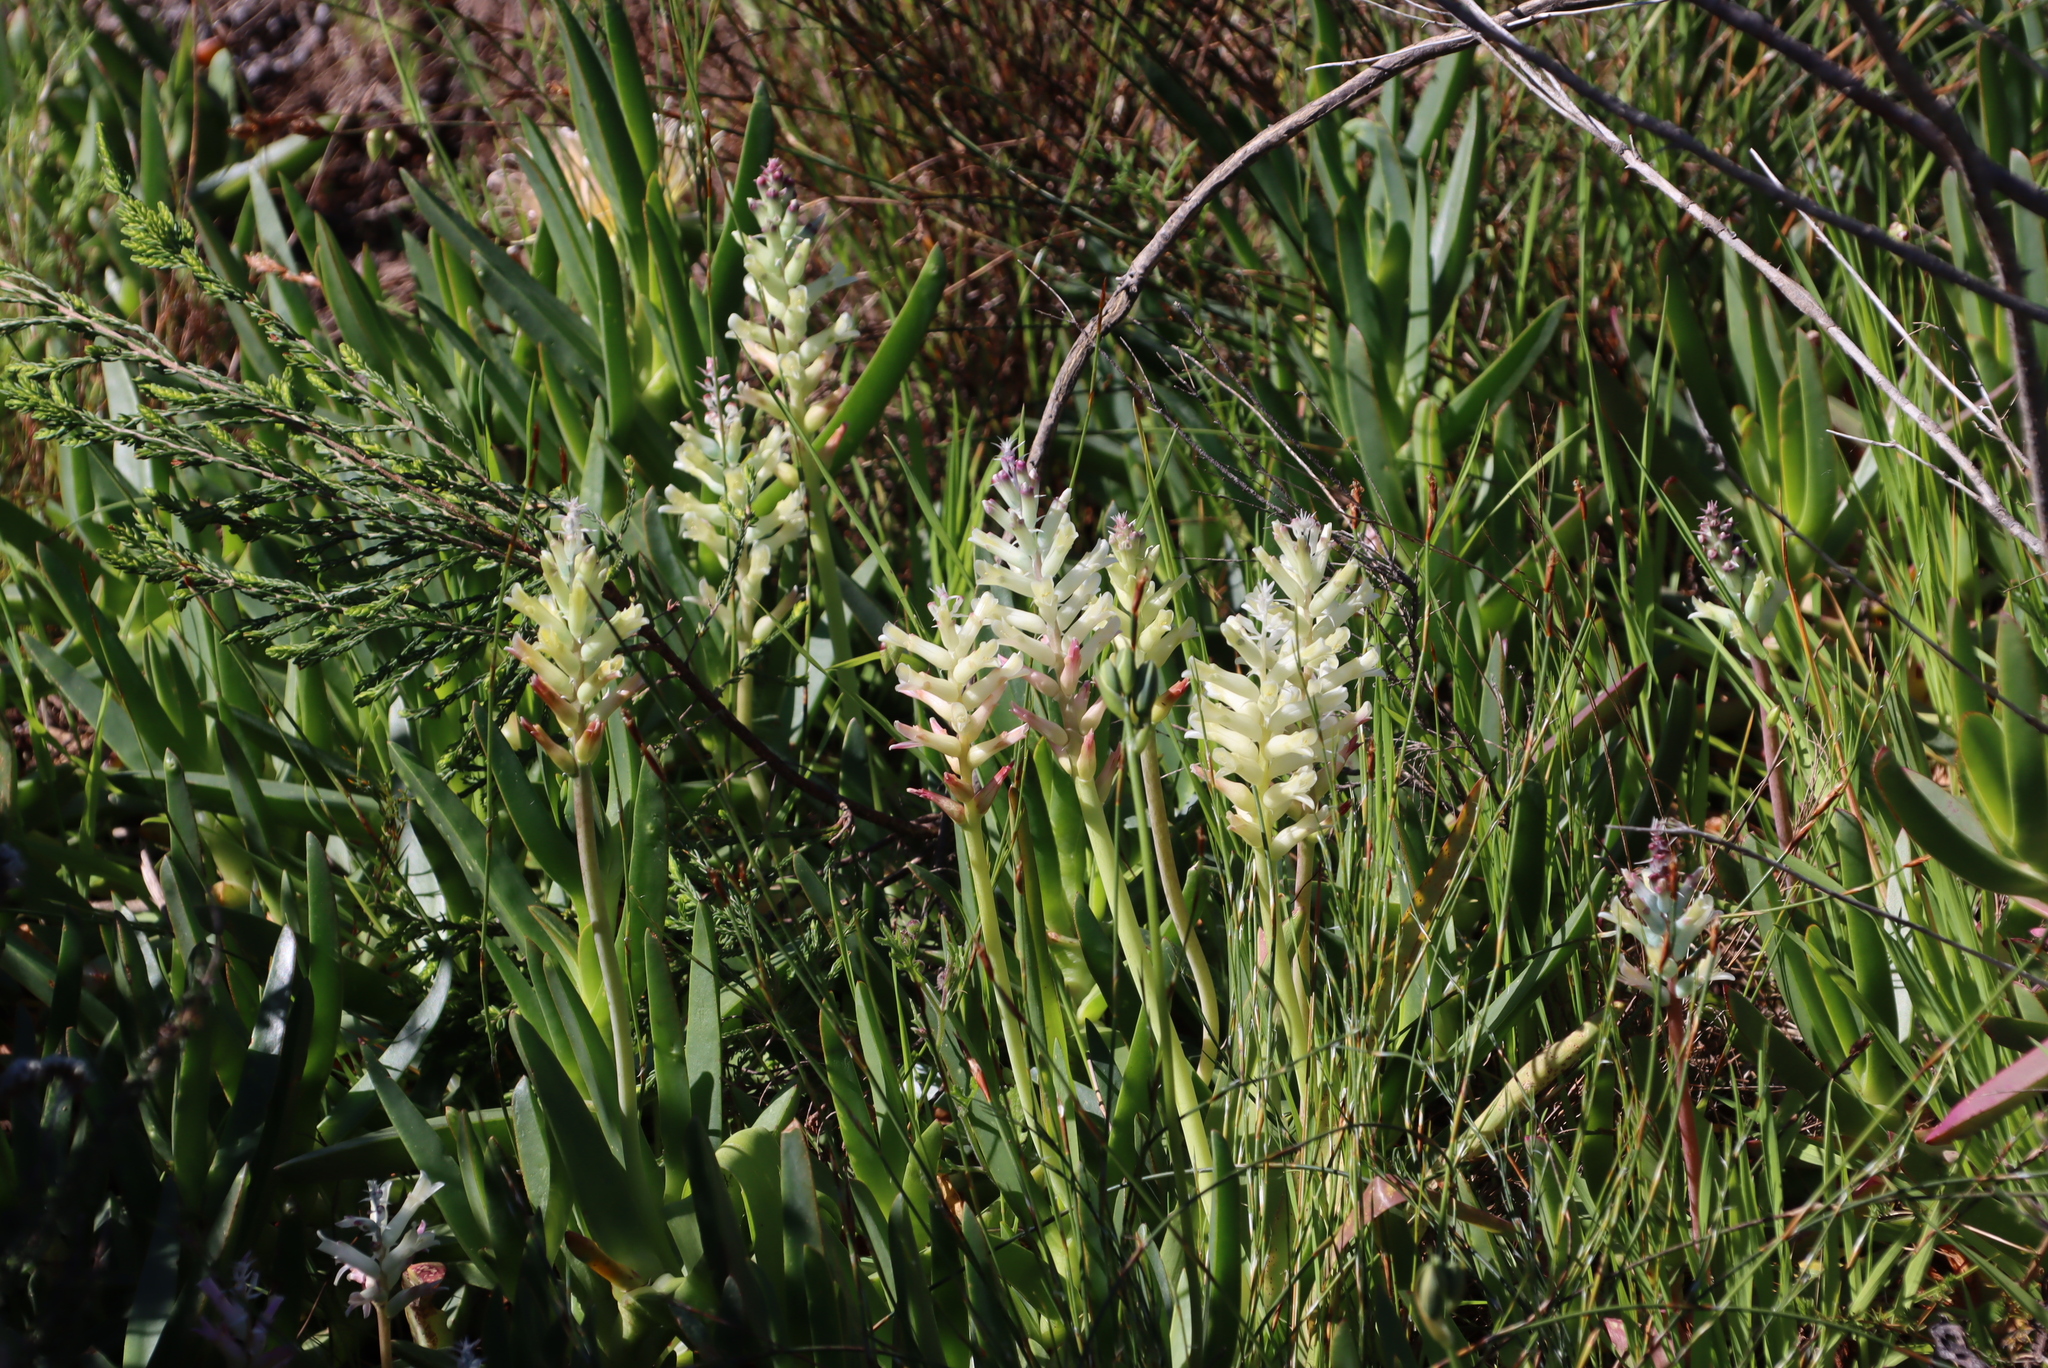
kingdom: Plantae
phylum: Tracheophyta
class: Liliopsida
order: Asparagales
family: Asparagaceae
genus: Lachenalia
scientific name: Lachenalia orchioides
